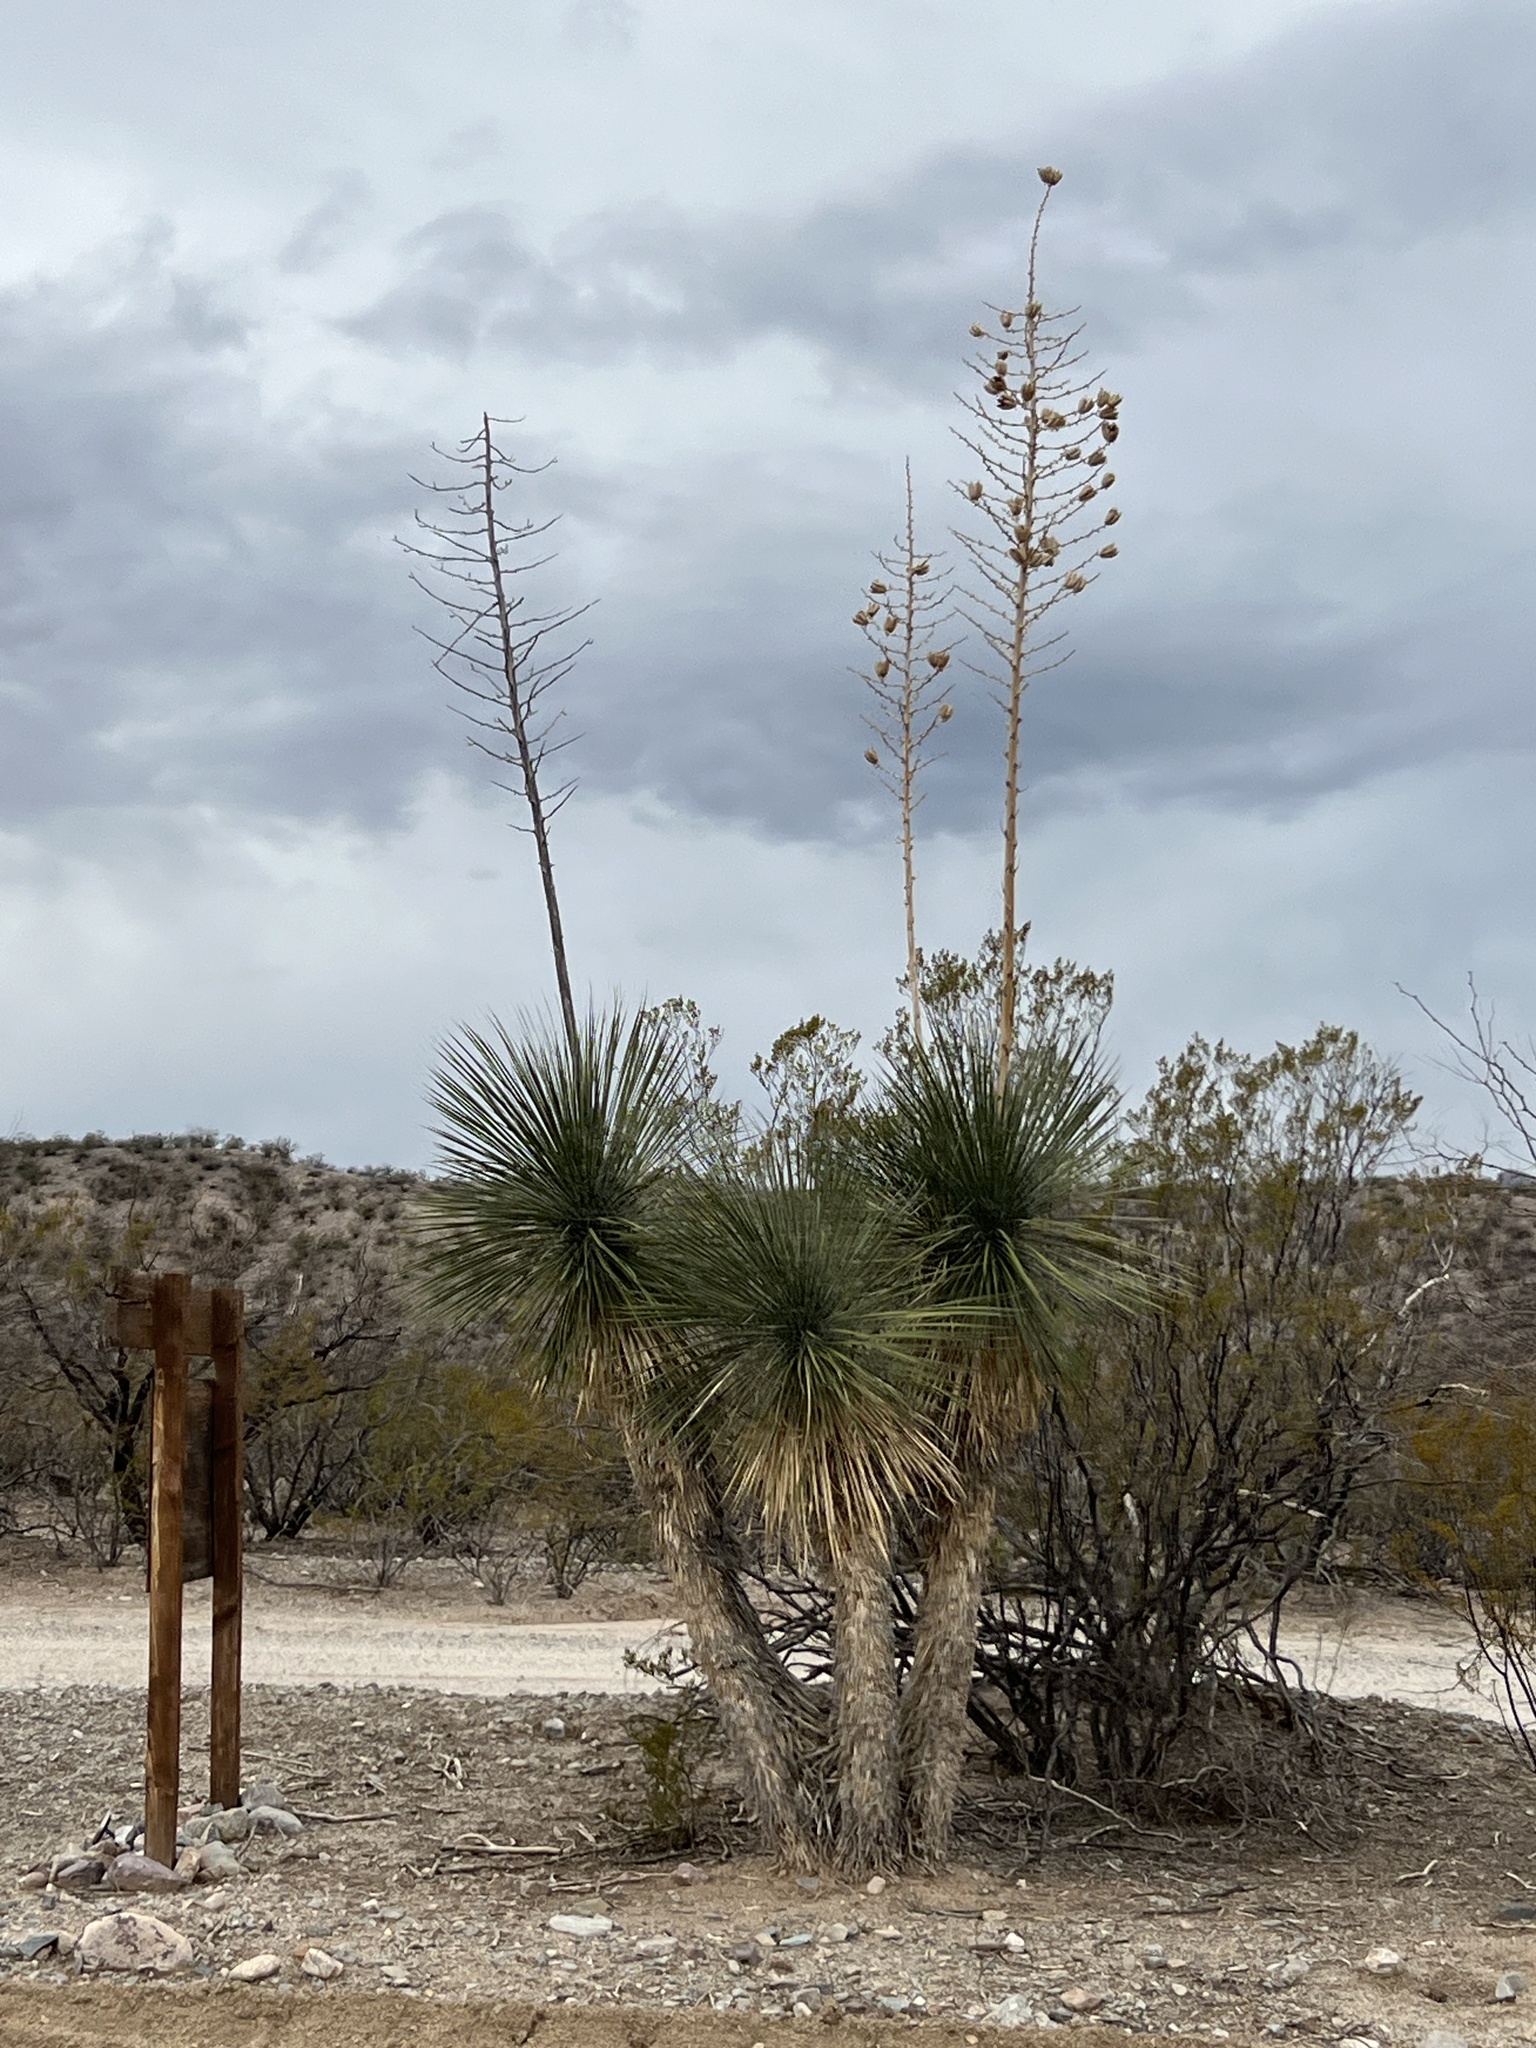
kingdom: Plantae
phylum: Tracheophyta
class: Liliopsida
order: Asparagales
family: Asparagaceae
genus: Yucca
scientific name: Yucca elata
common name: Palmella
